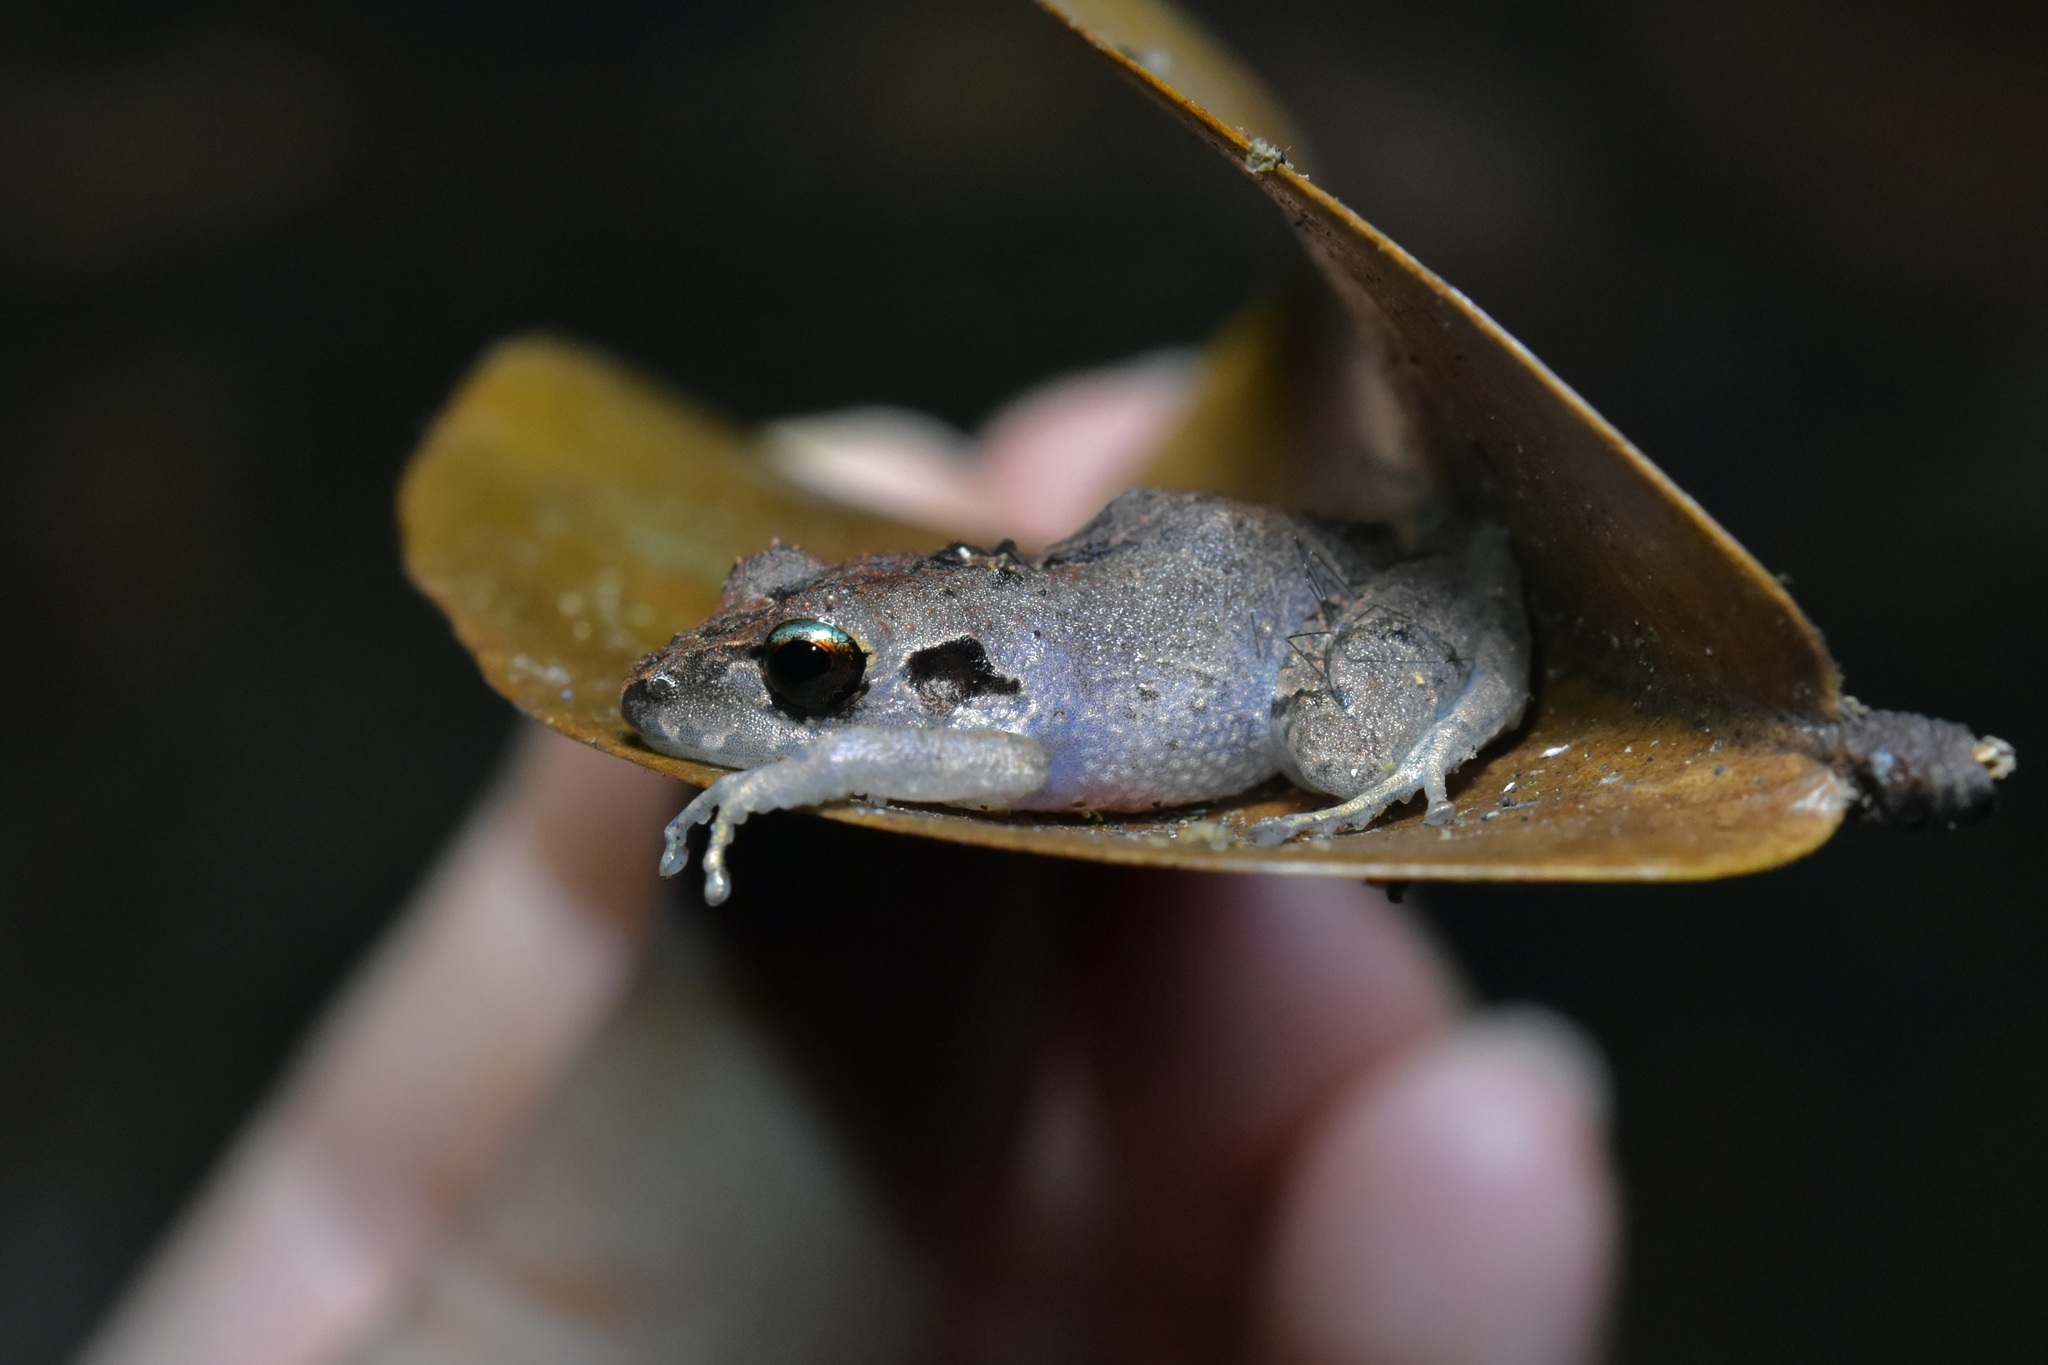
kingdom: Animalia
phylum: Chordata
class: Amphibia
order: Anura
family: Craugastoridae
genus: Pristimantis
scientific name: Pristimantis urichi
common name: Lesser antilles robber frog
